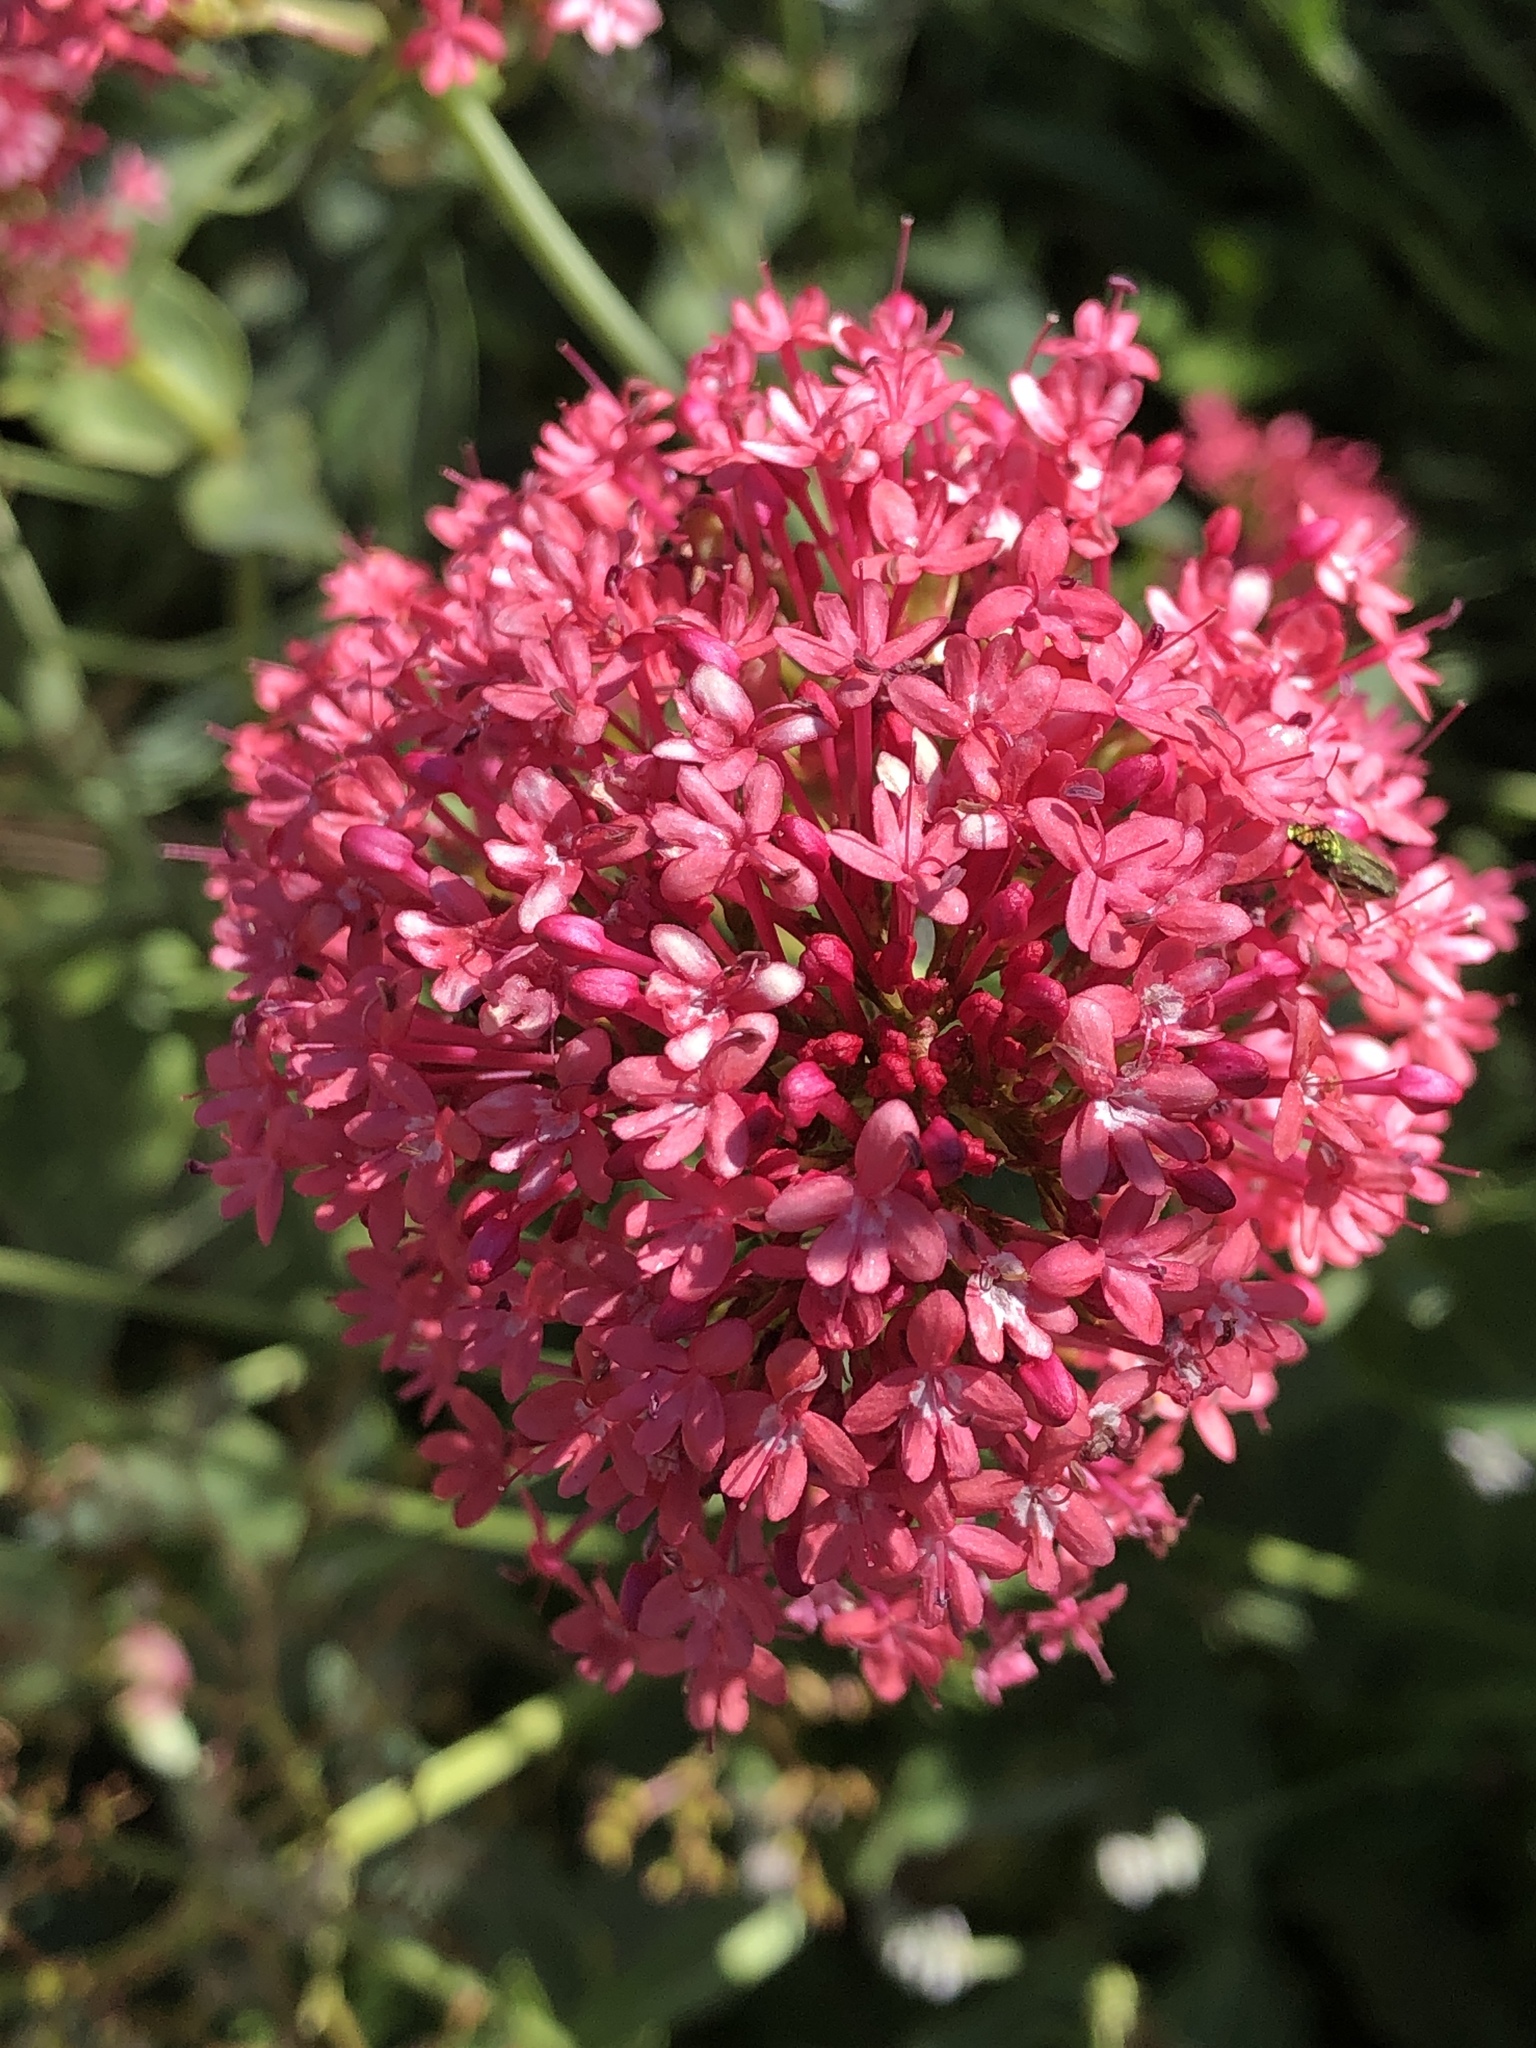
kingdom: Plantae
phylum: Tracheophyta
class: Magnoliopsida
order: Dipsacales
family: Caprifoliaceae
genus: Centranthus
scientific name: Centranthus ruber
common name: Red valerian
